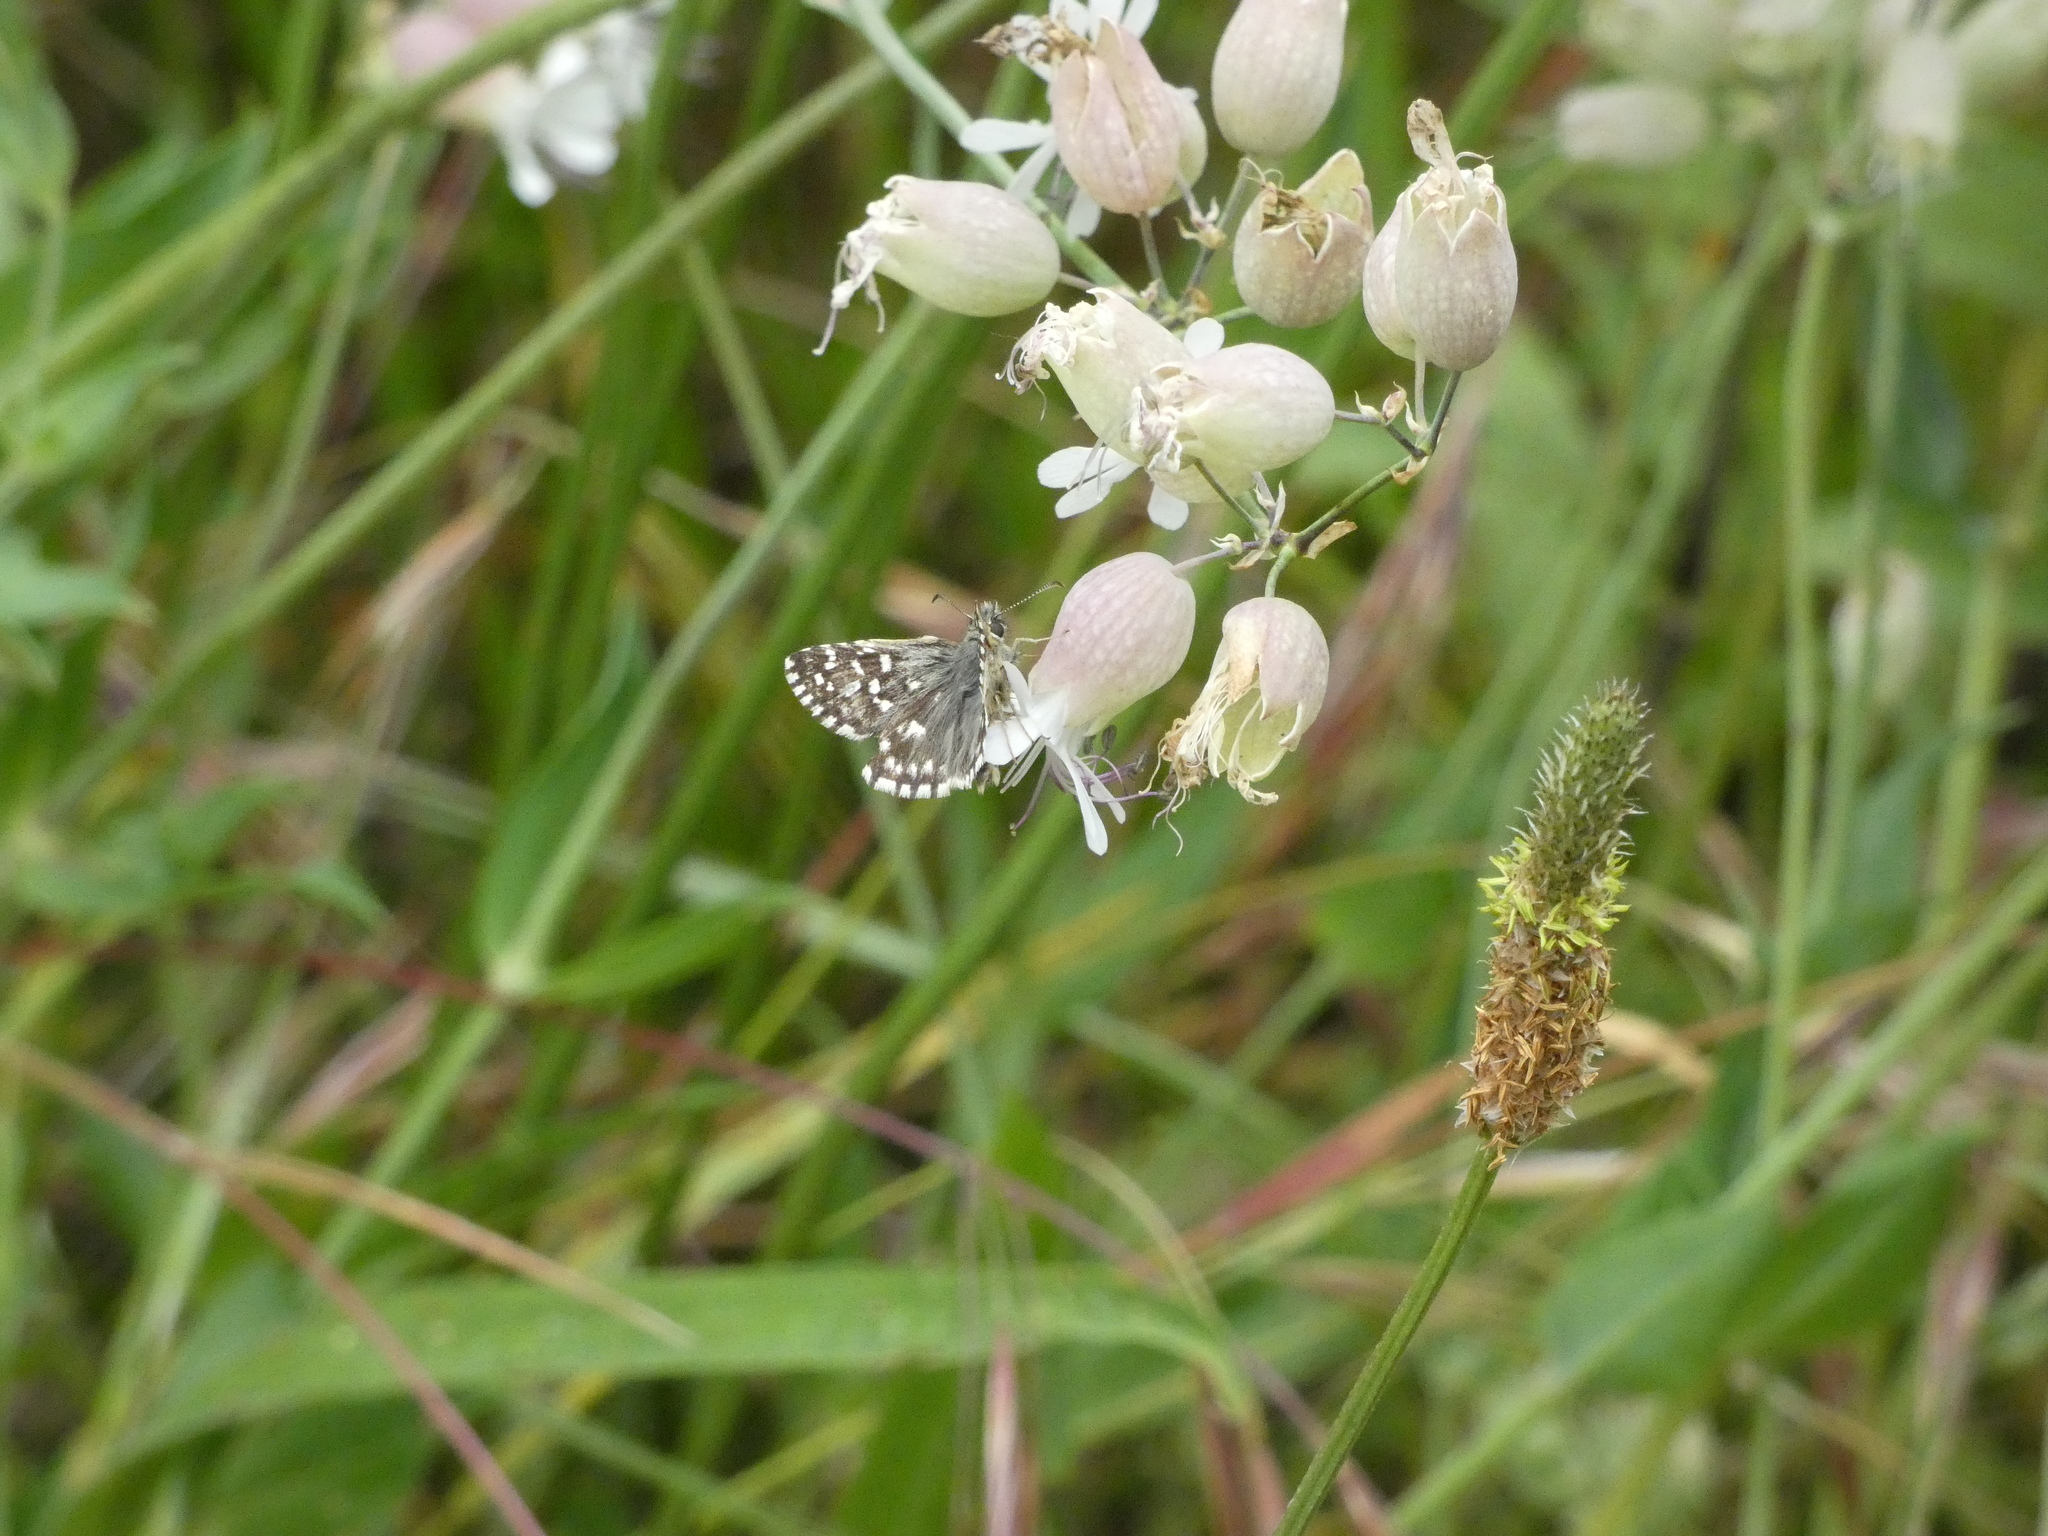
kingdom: Animalia
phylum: Arthropoda
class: Insecta
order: Lepidoptera
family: Hesperiidae
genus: Pyrgus
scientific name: Pyrgus malvae
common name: Grizzled skipper
